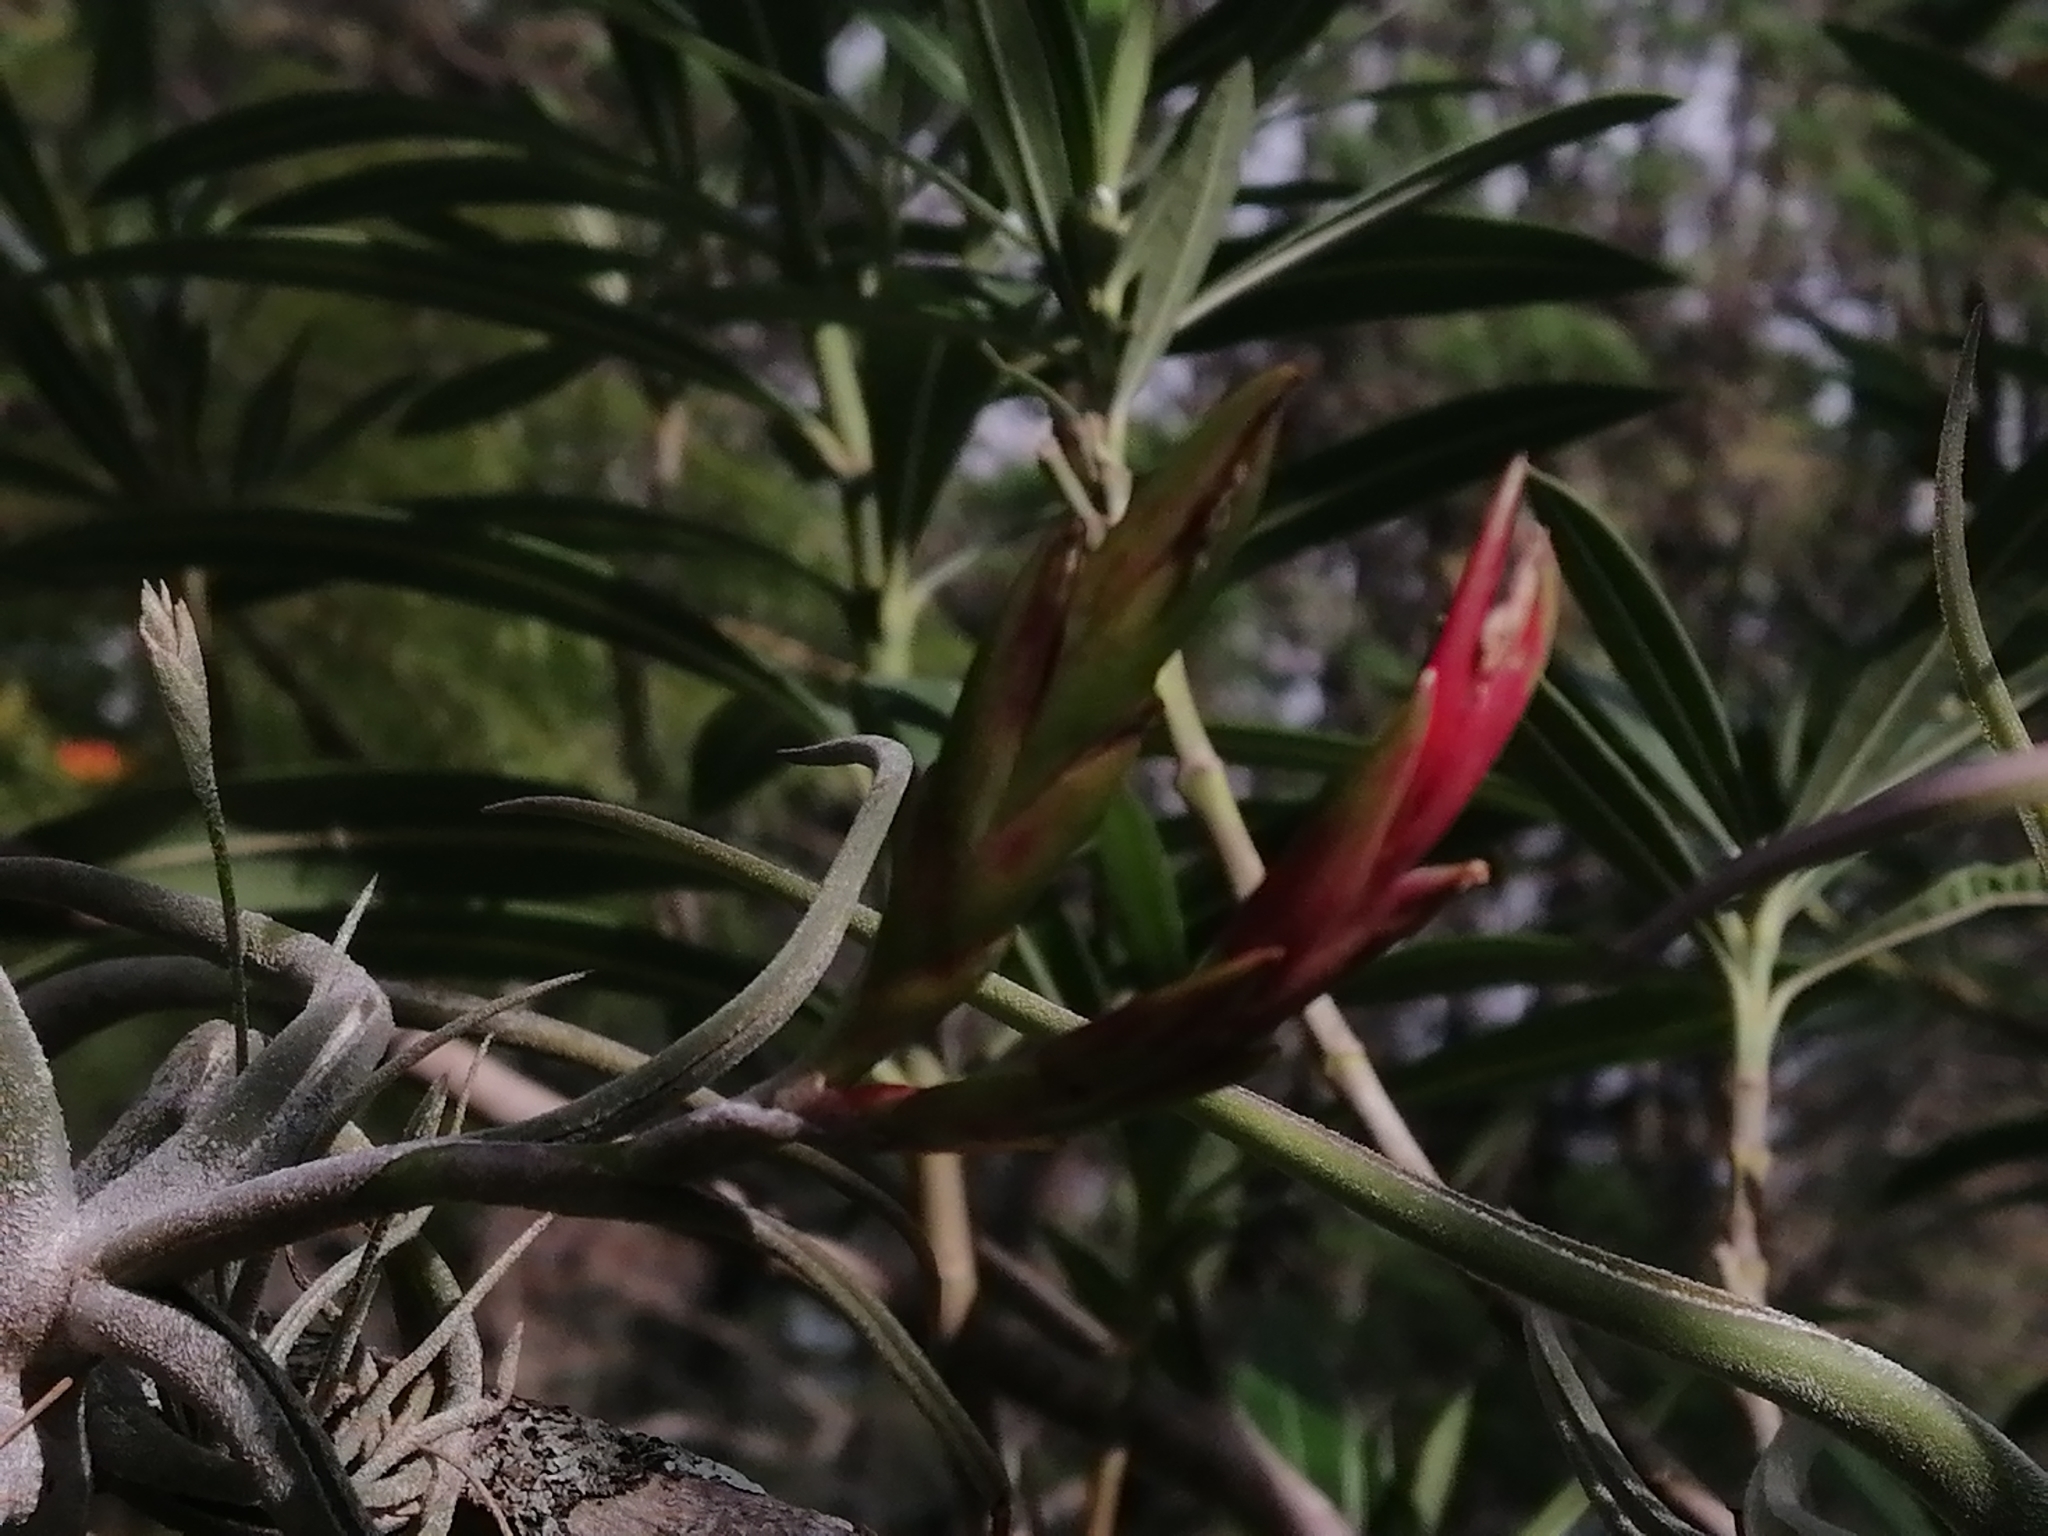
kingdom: Plantae
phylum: Tracheophyta
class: Liliopsida
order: Poales
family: Bromeliaceae
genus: Tillandsia
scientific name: Tillandsia caput-medusae
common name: Octopus plant
